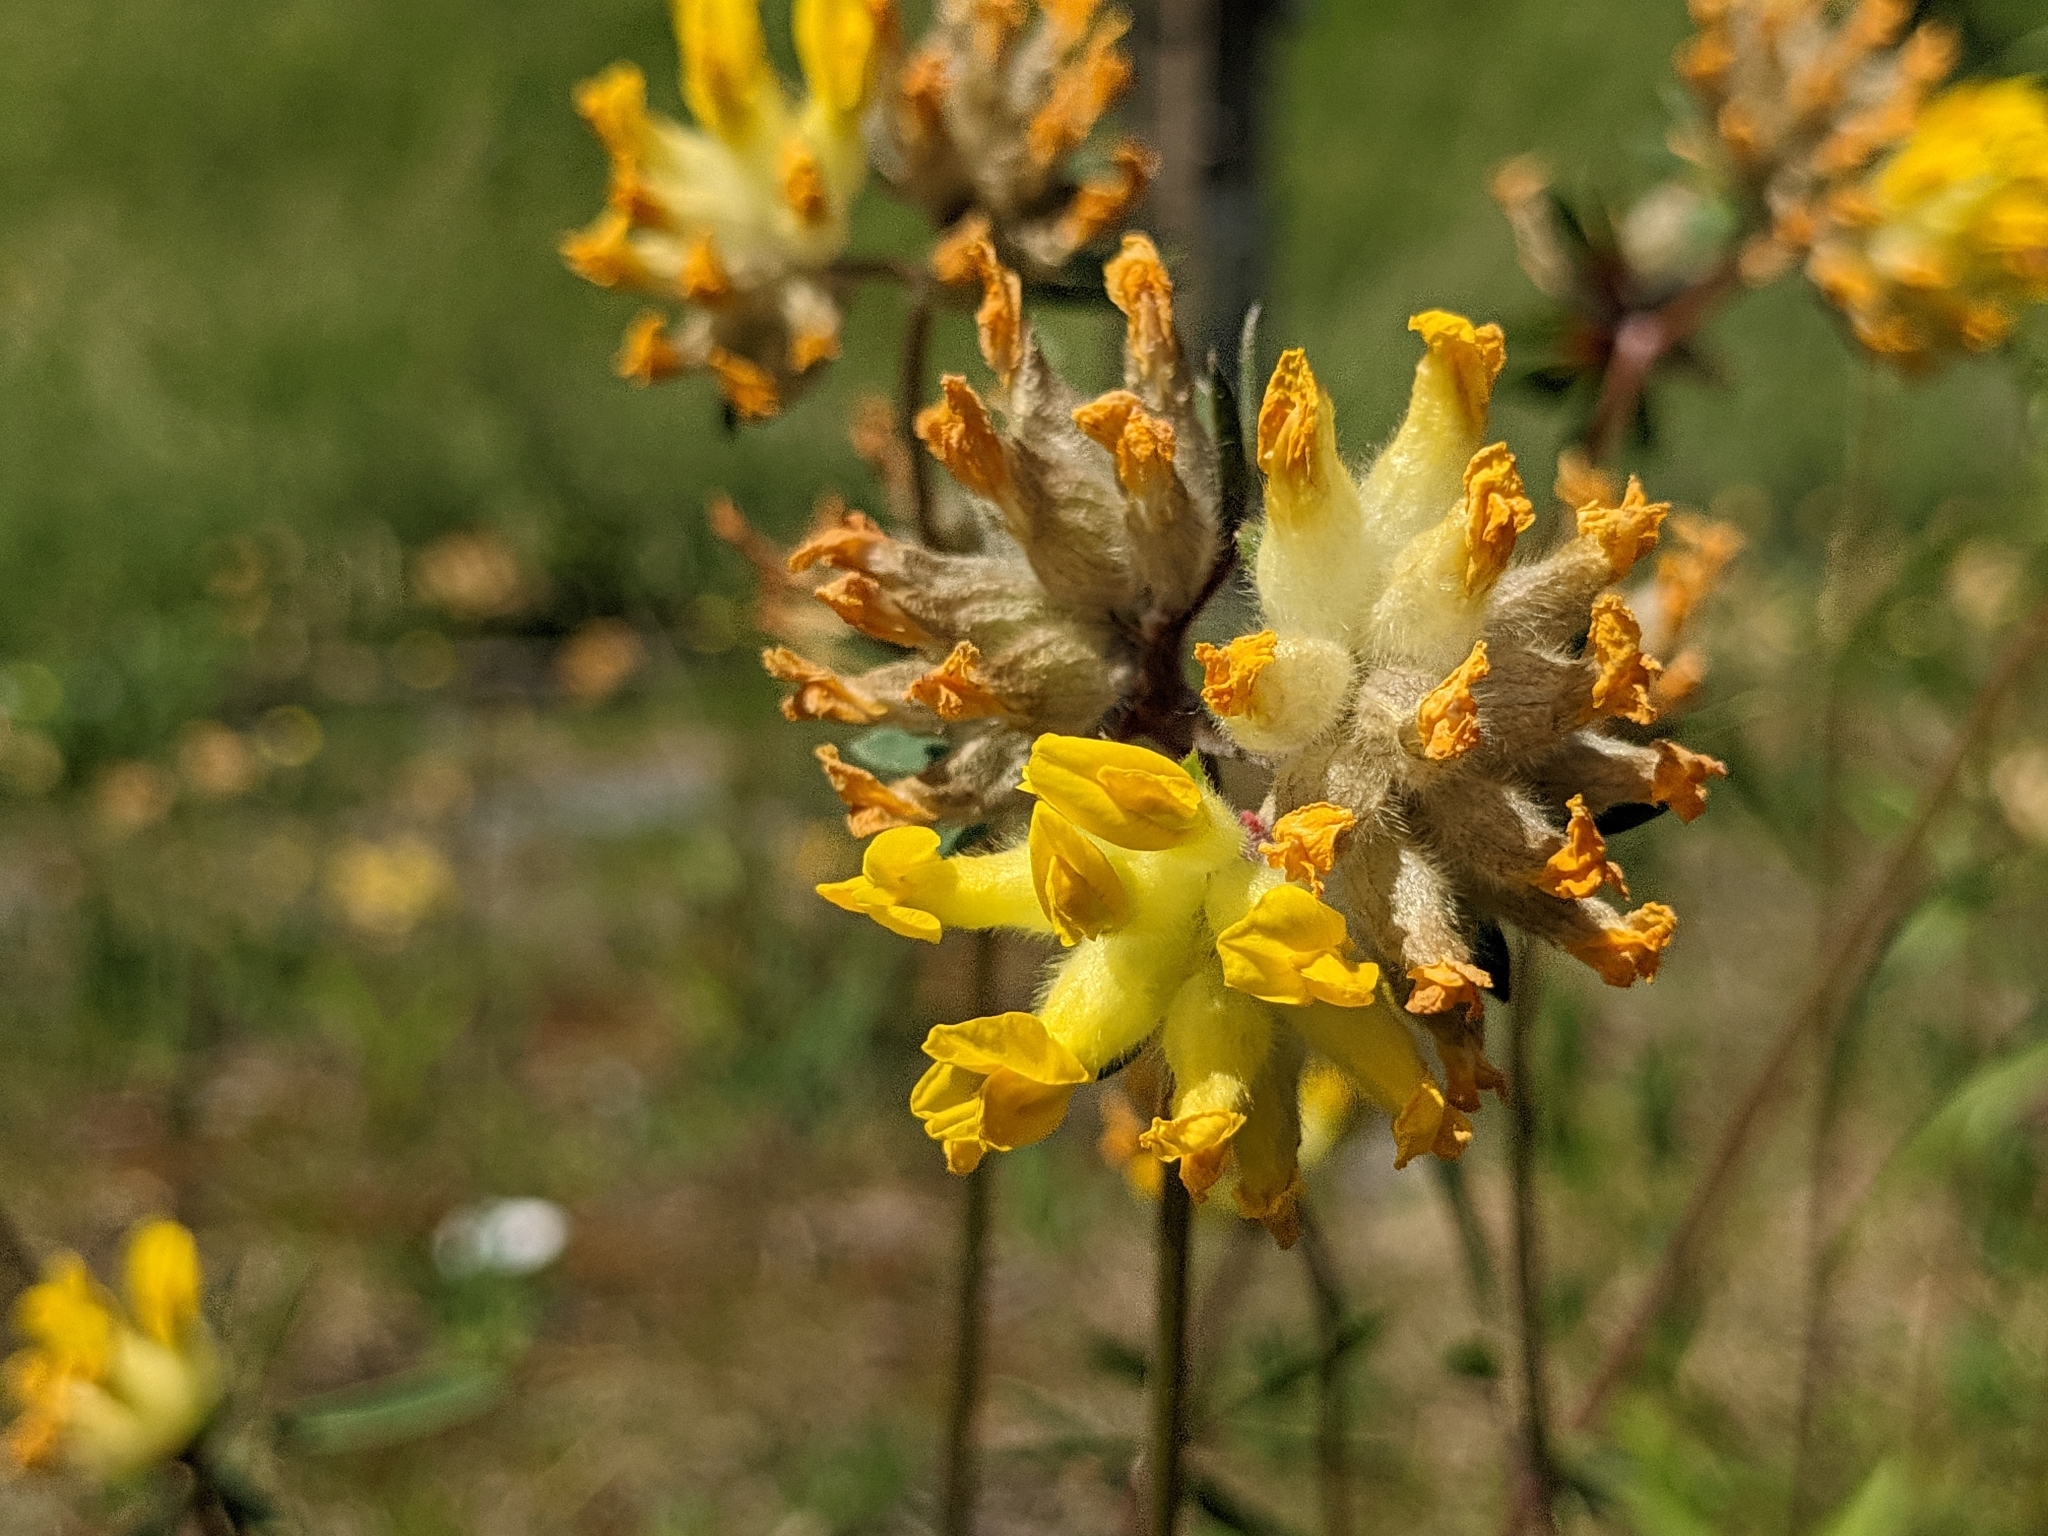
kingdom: Plantae
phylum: Tracheophyta
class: Magnoliopsida
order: Fabales
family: Fabaceae
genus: Anthyllis
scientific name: Anthyllis vulneraria
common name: Kidney vetch
